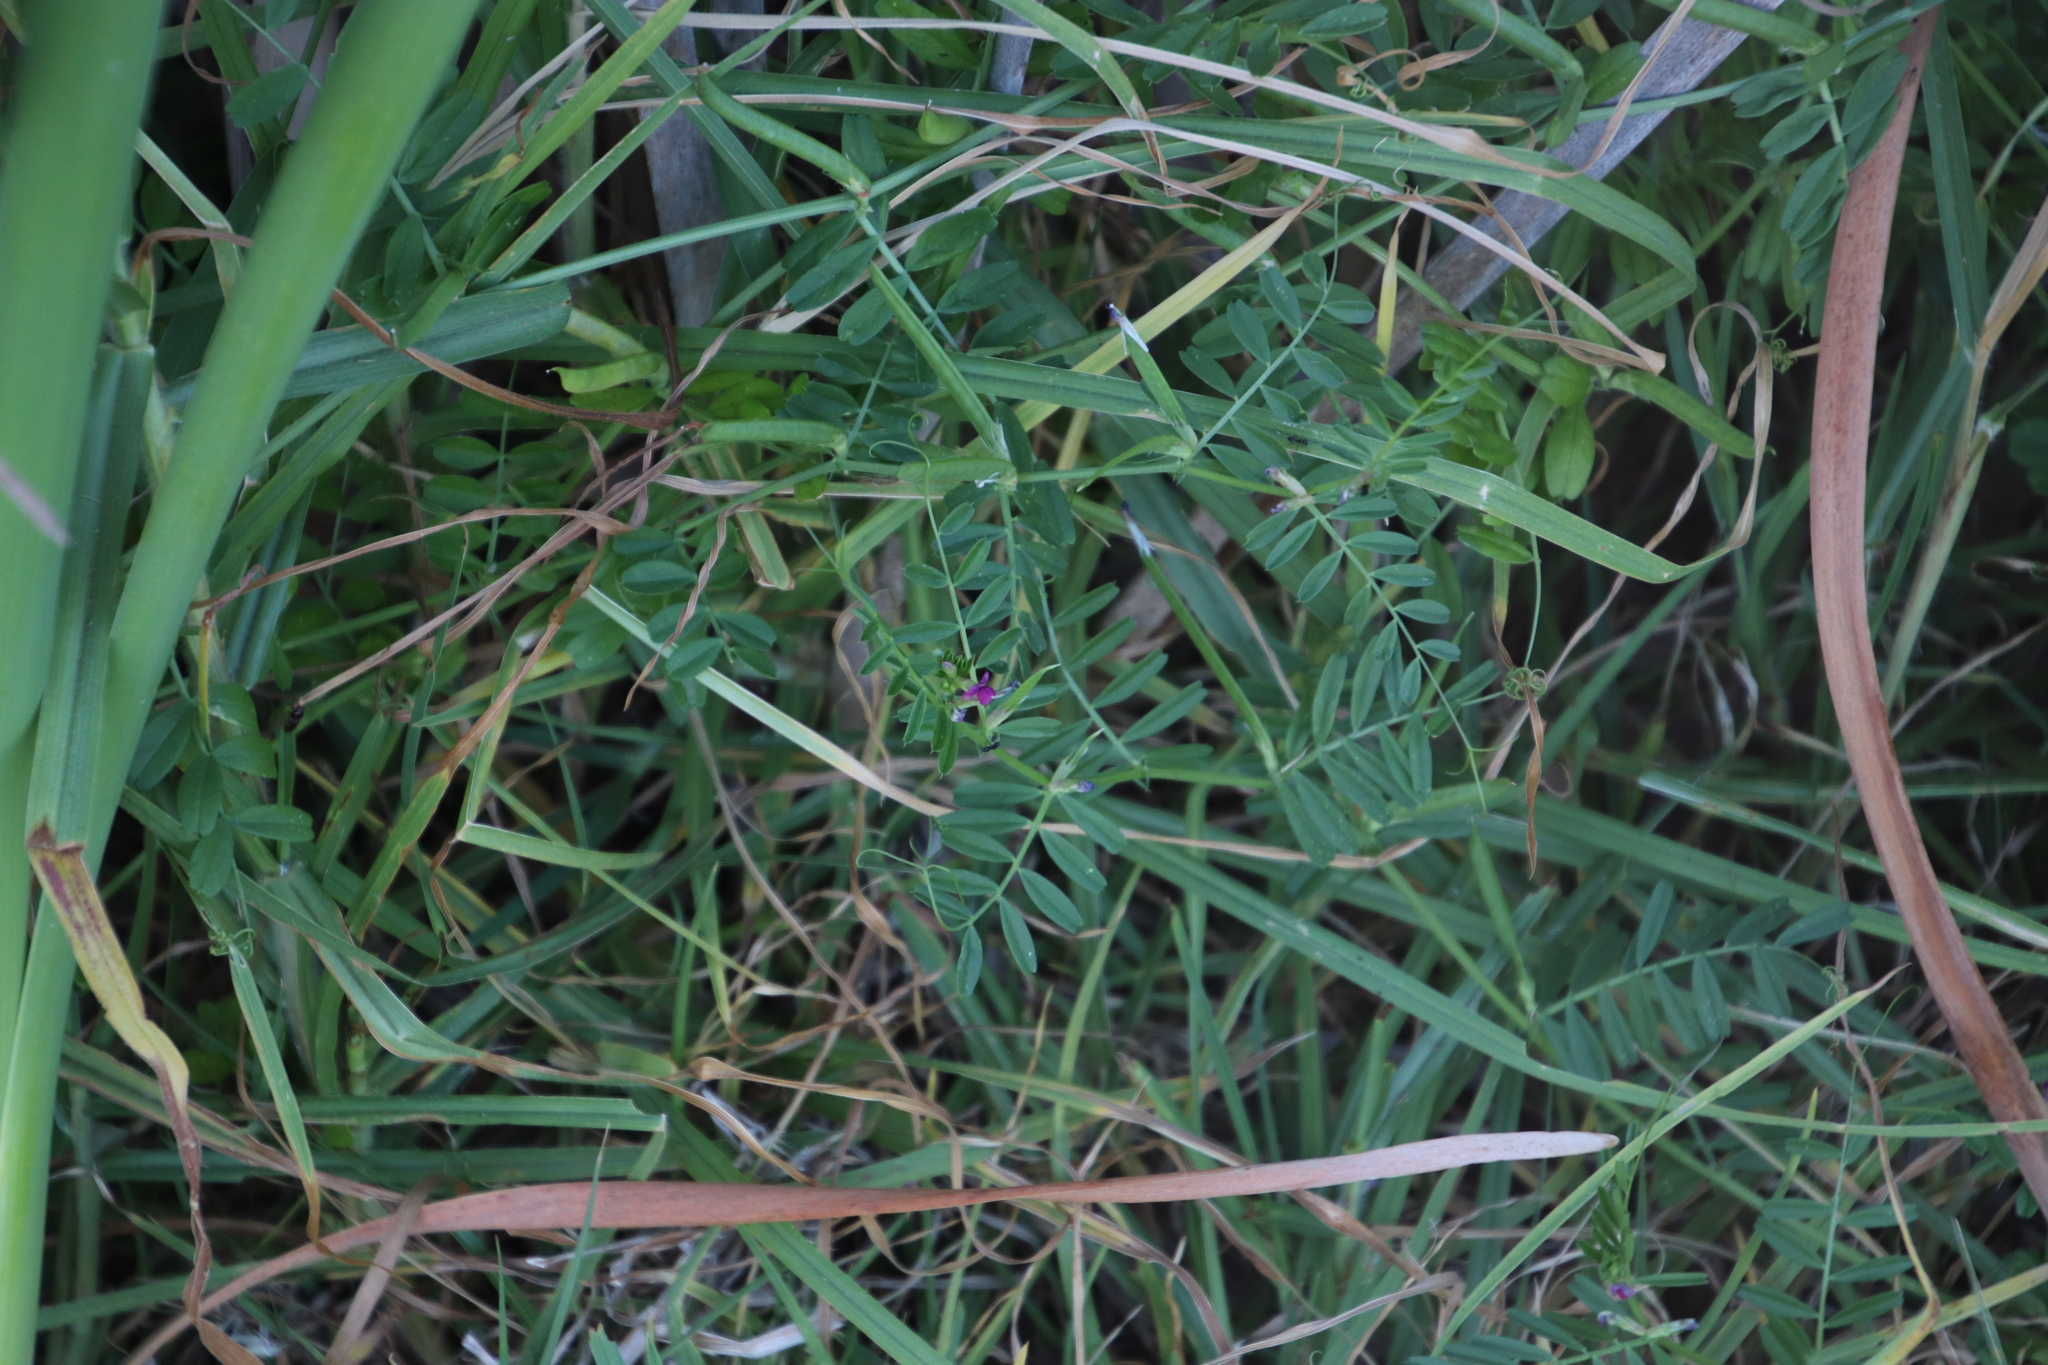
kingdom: Plantae
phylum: Tracheophyta
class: Magnoliopsida
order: Fabales
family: Fabaceae
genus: Vicia
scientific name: Vicia sativa
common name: Garden vetch
